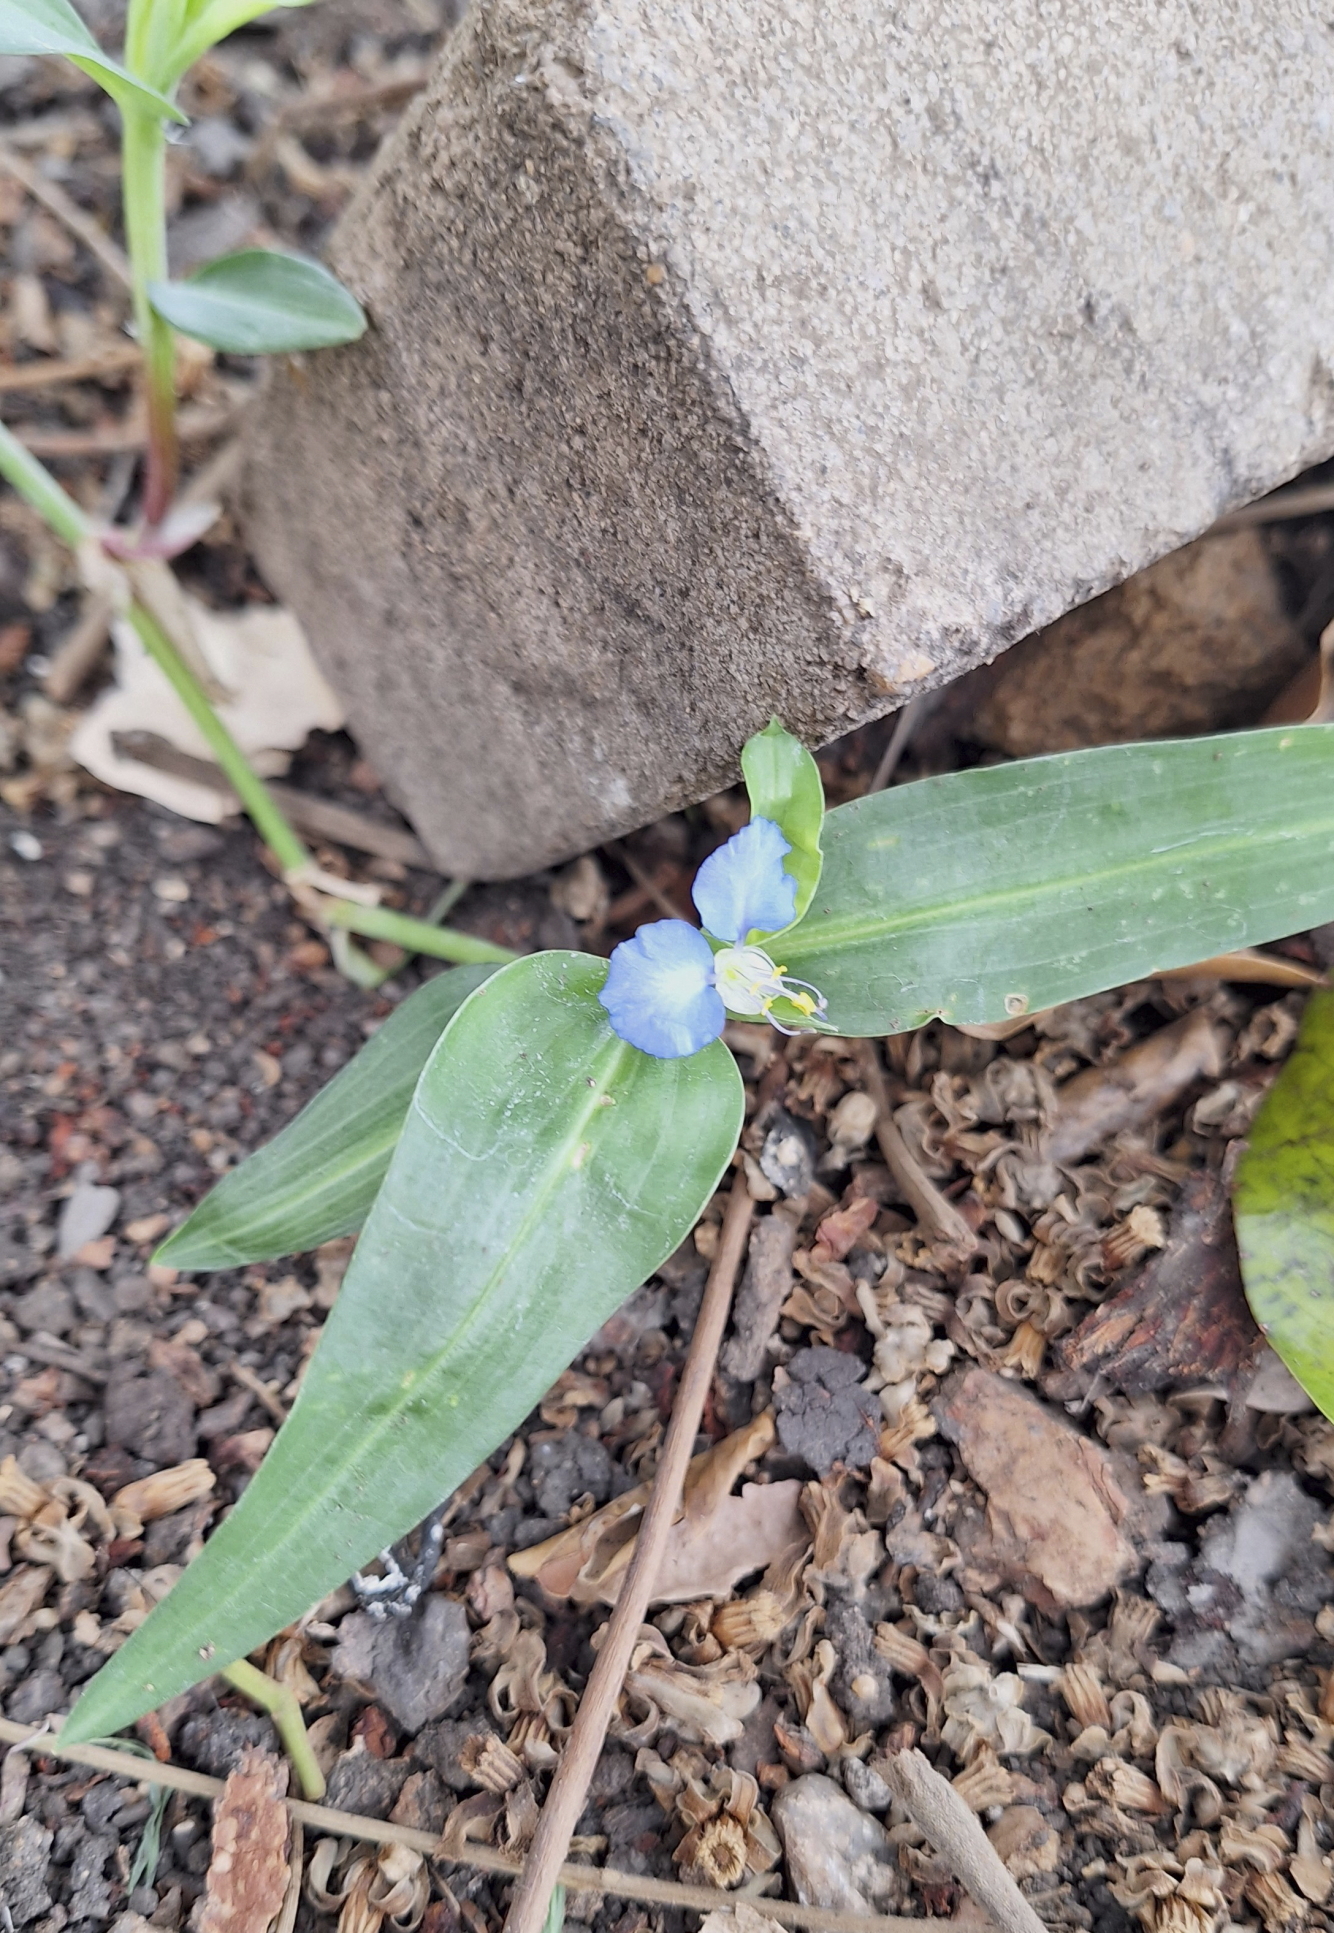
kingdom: Plantae
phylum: Tracheophyta
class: Liliopsida
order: Commelinales
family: Commelinaceae
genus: Commelina
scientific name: Commelina erecta
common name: Blousel blommetjie
